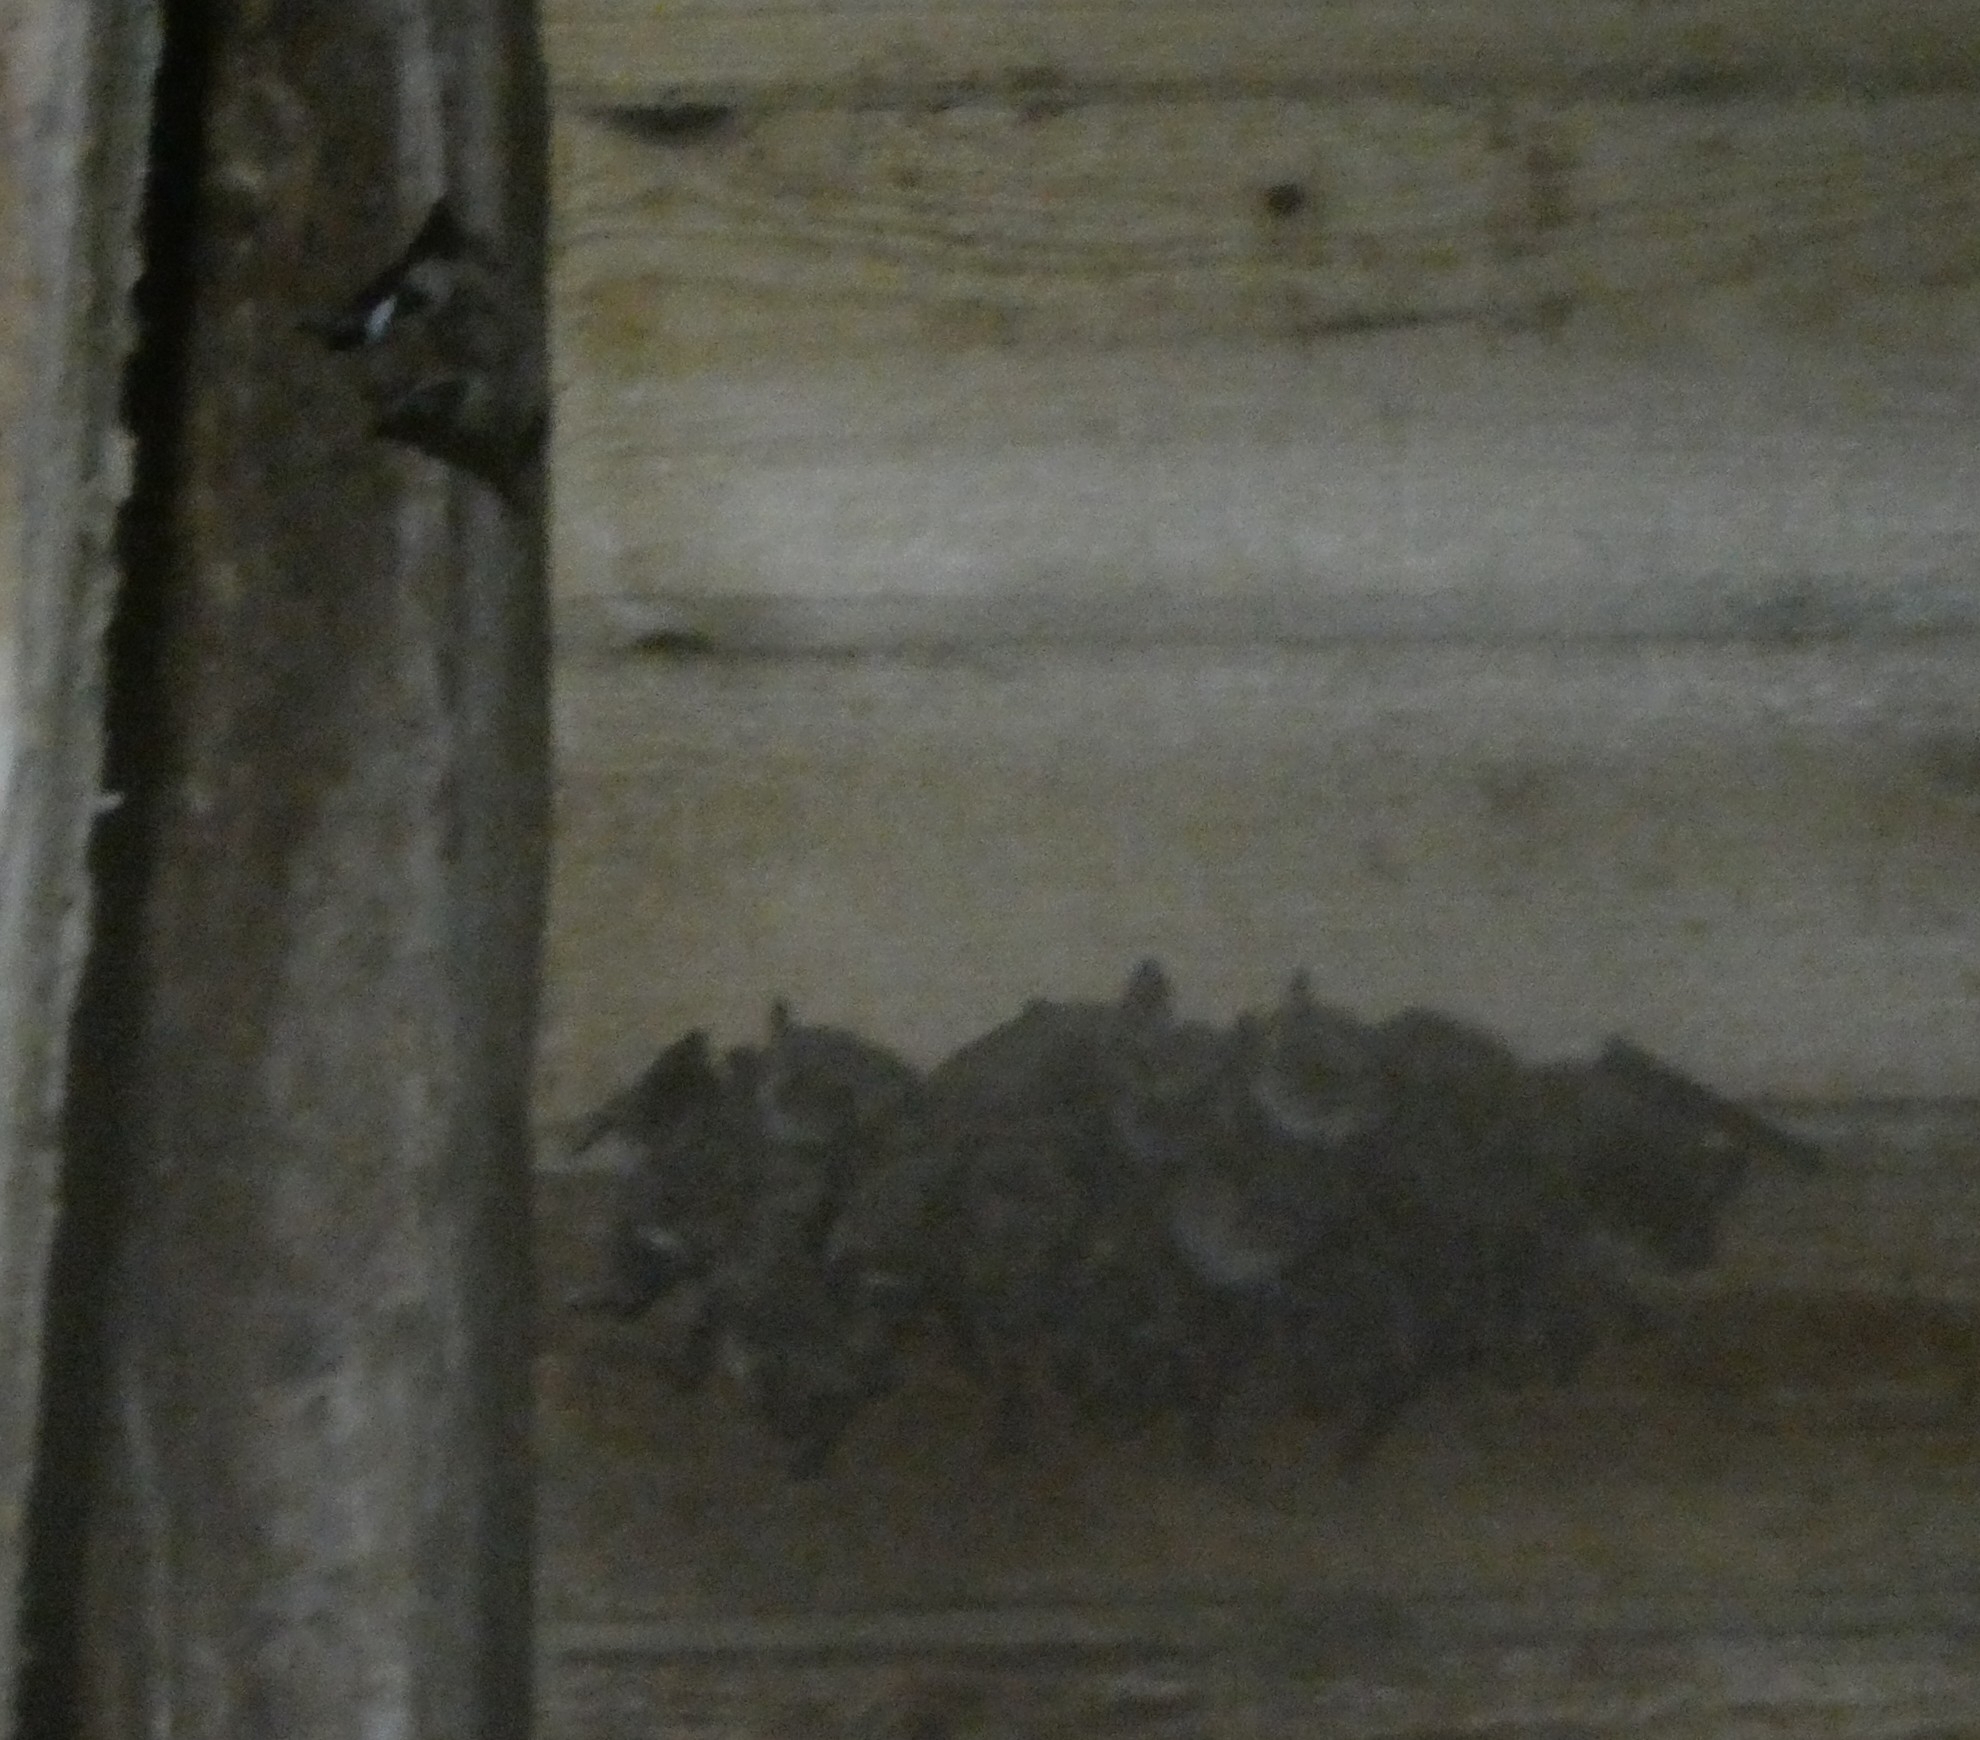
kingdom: Animalia
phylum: Chordata
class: Mammalia
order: Chiroptera
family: Vespertilionidae
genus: Myotis
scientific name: Myotis myotis
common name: Greater mouse-eared bat
